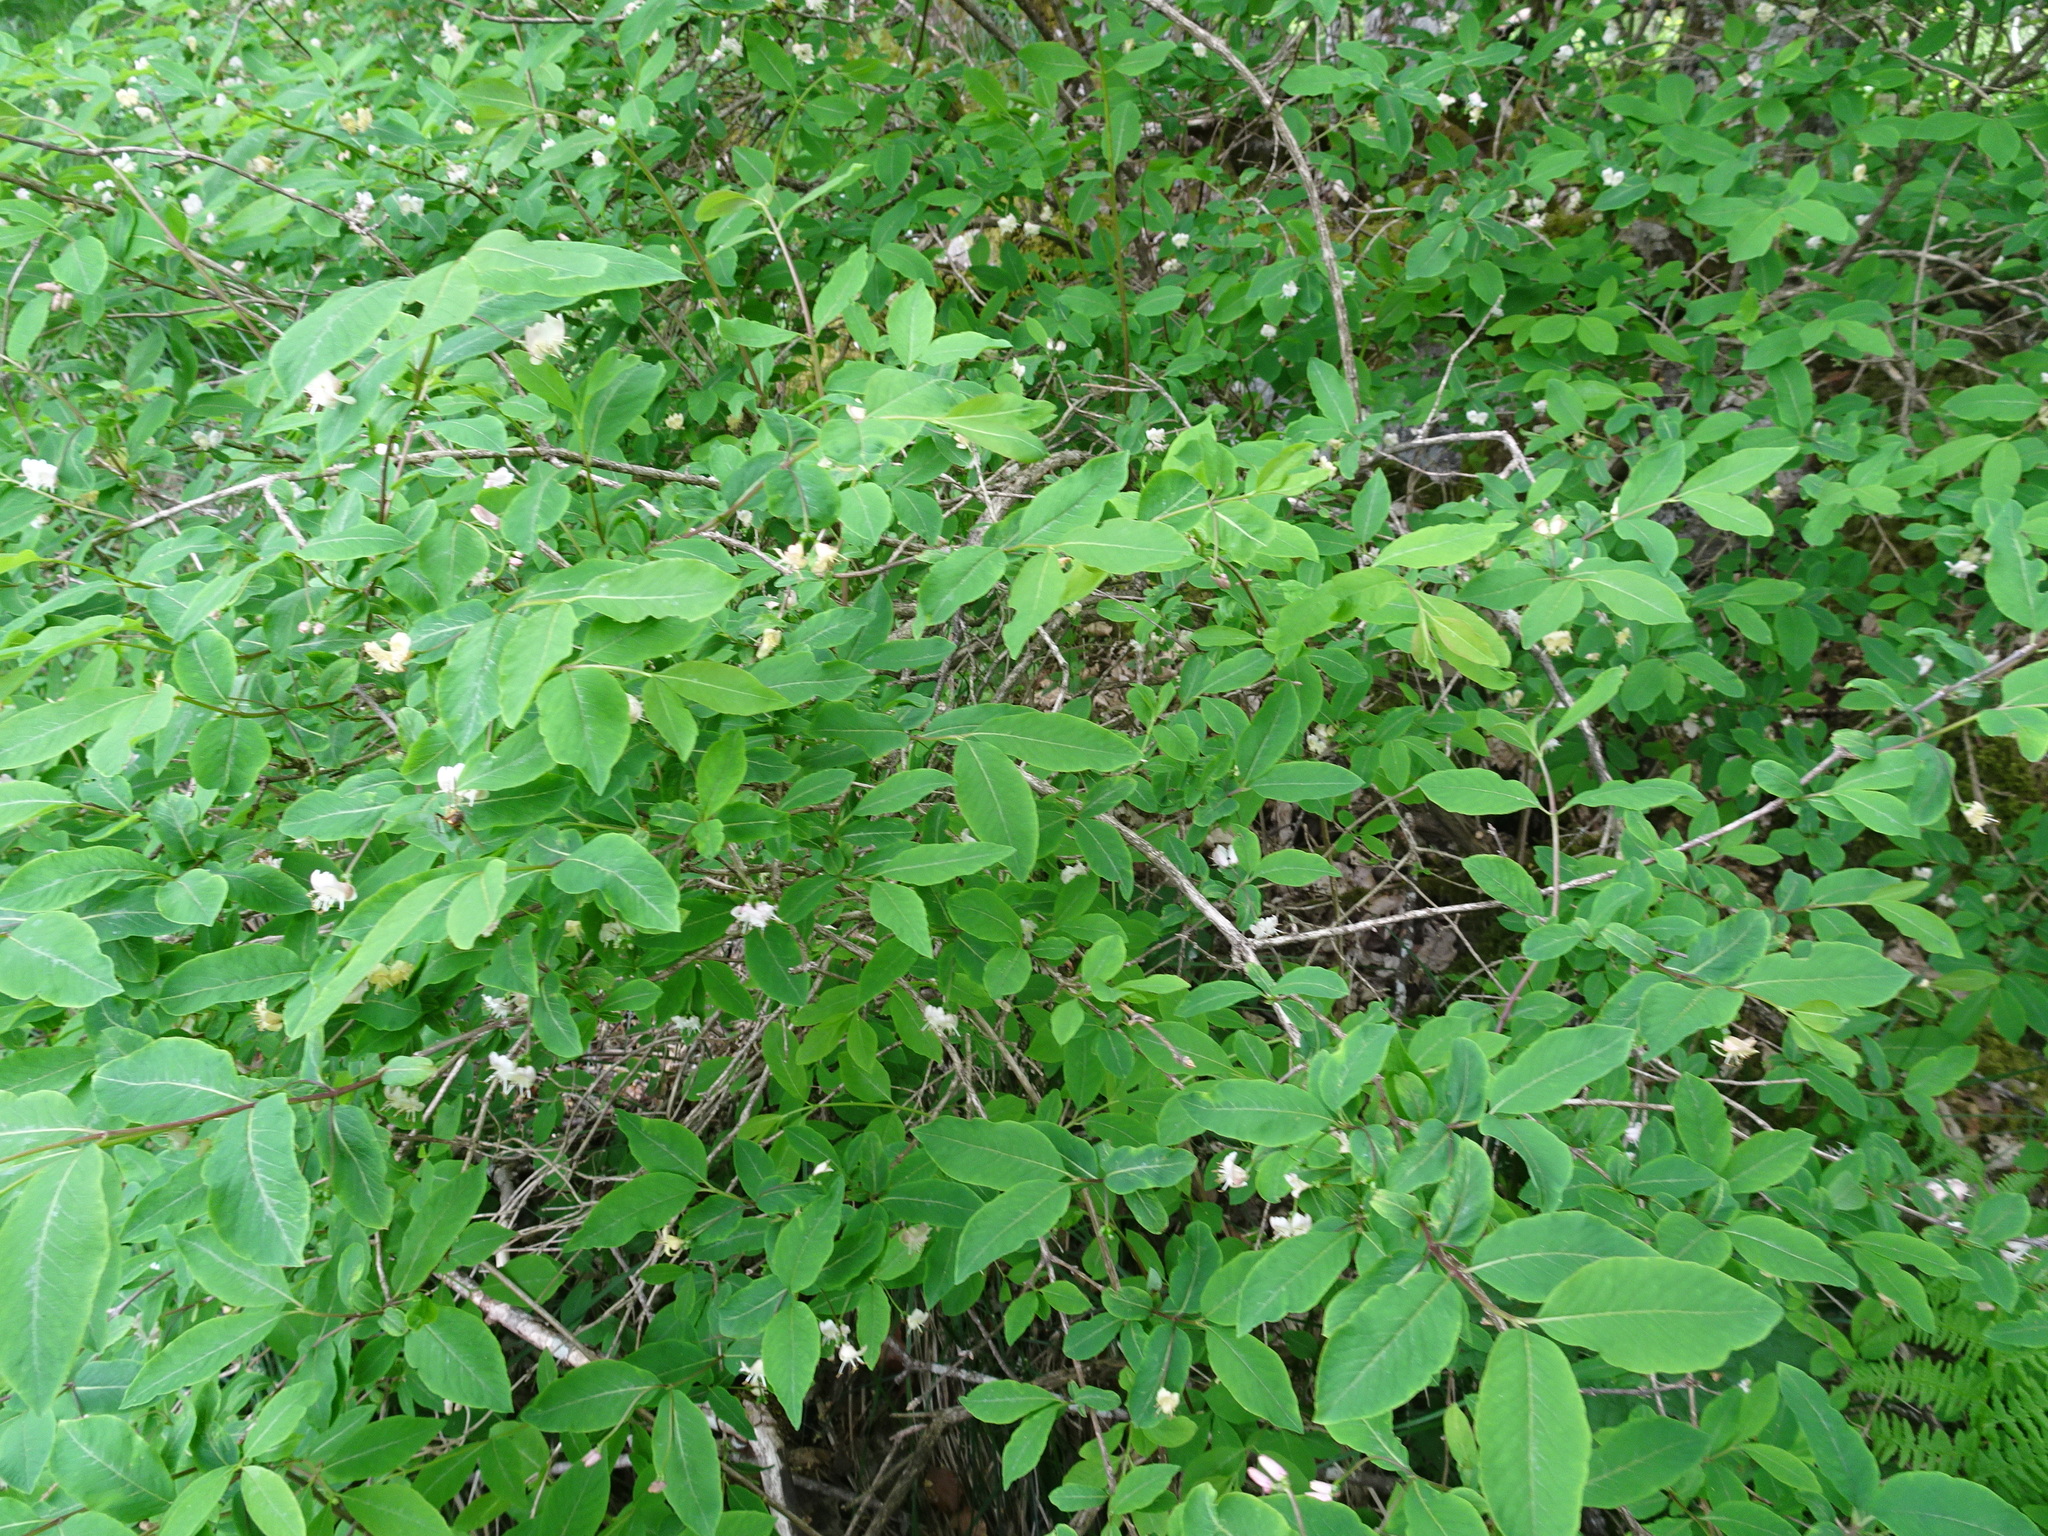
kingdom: Plantae
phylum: Tracheophyta
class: Magnoliopsida
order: Dipsacales
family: Caprifoliaceae
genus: Lonicera
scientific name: Lonicera nigra
